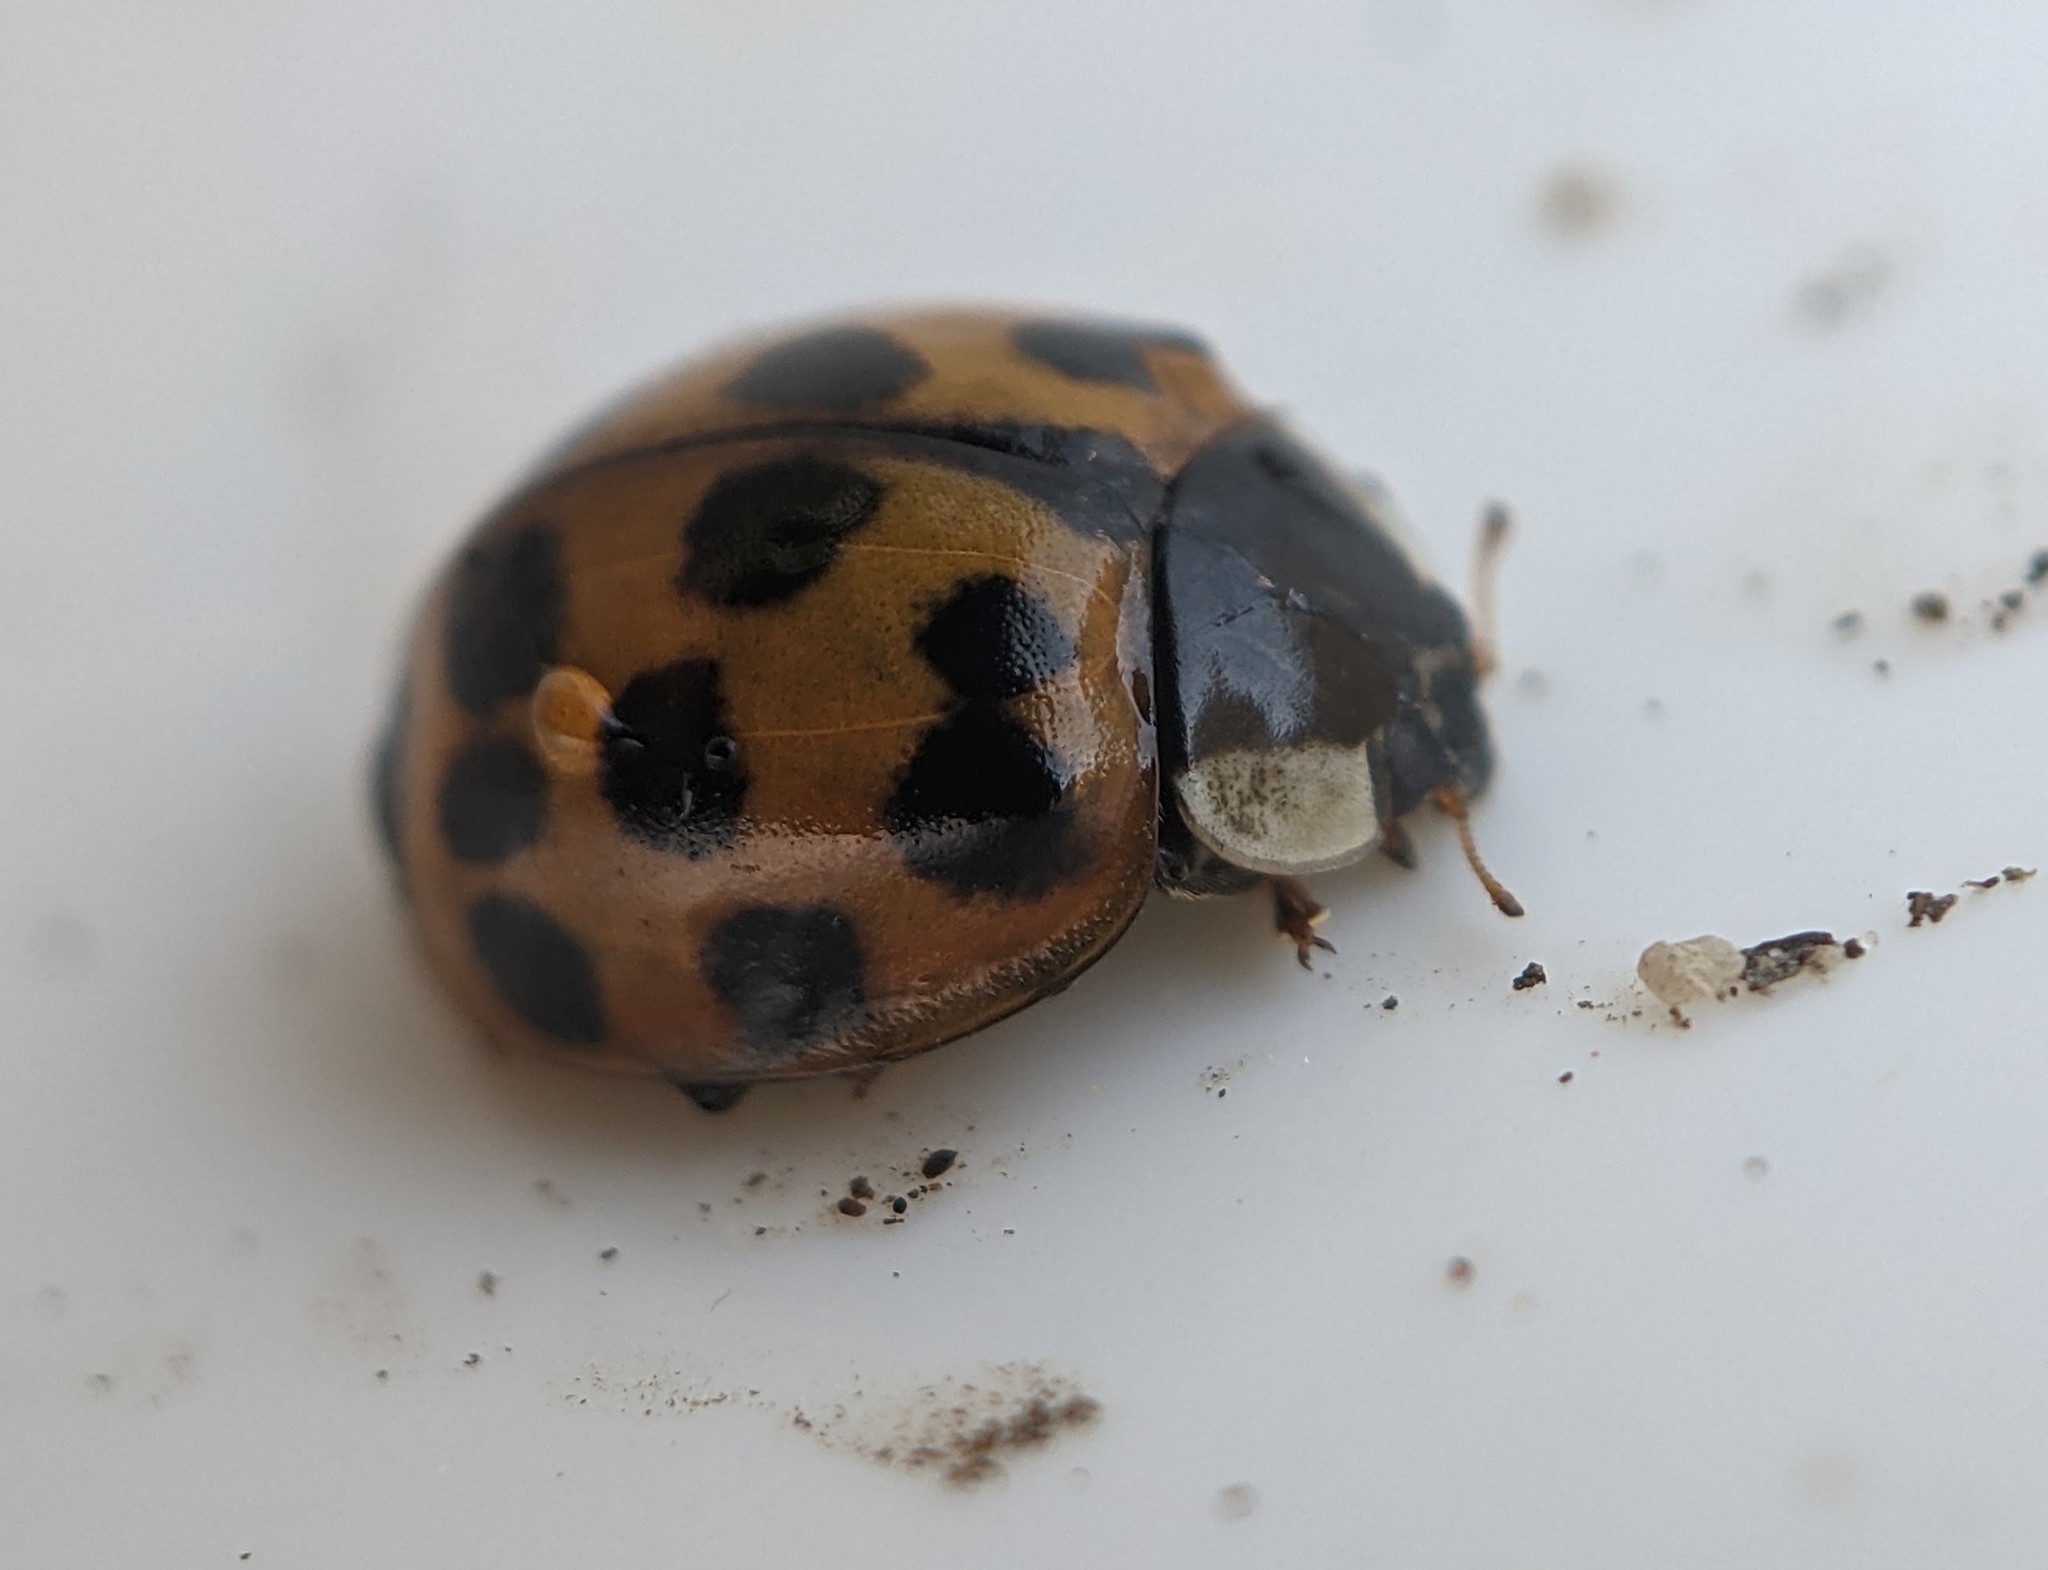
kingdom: Animalia
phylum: Arthropoda
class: Insecta
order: Coleoptera
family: Coccinellidae
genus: Harmonia
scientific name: Harmonia axyridis
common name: Harlequin ladybird
